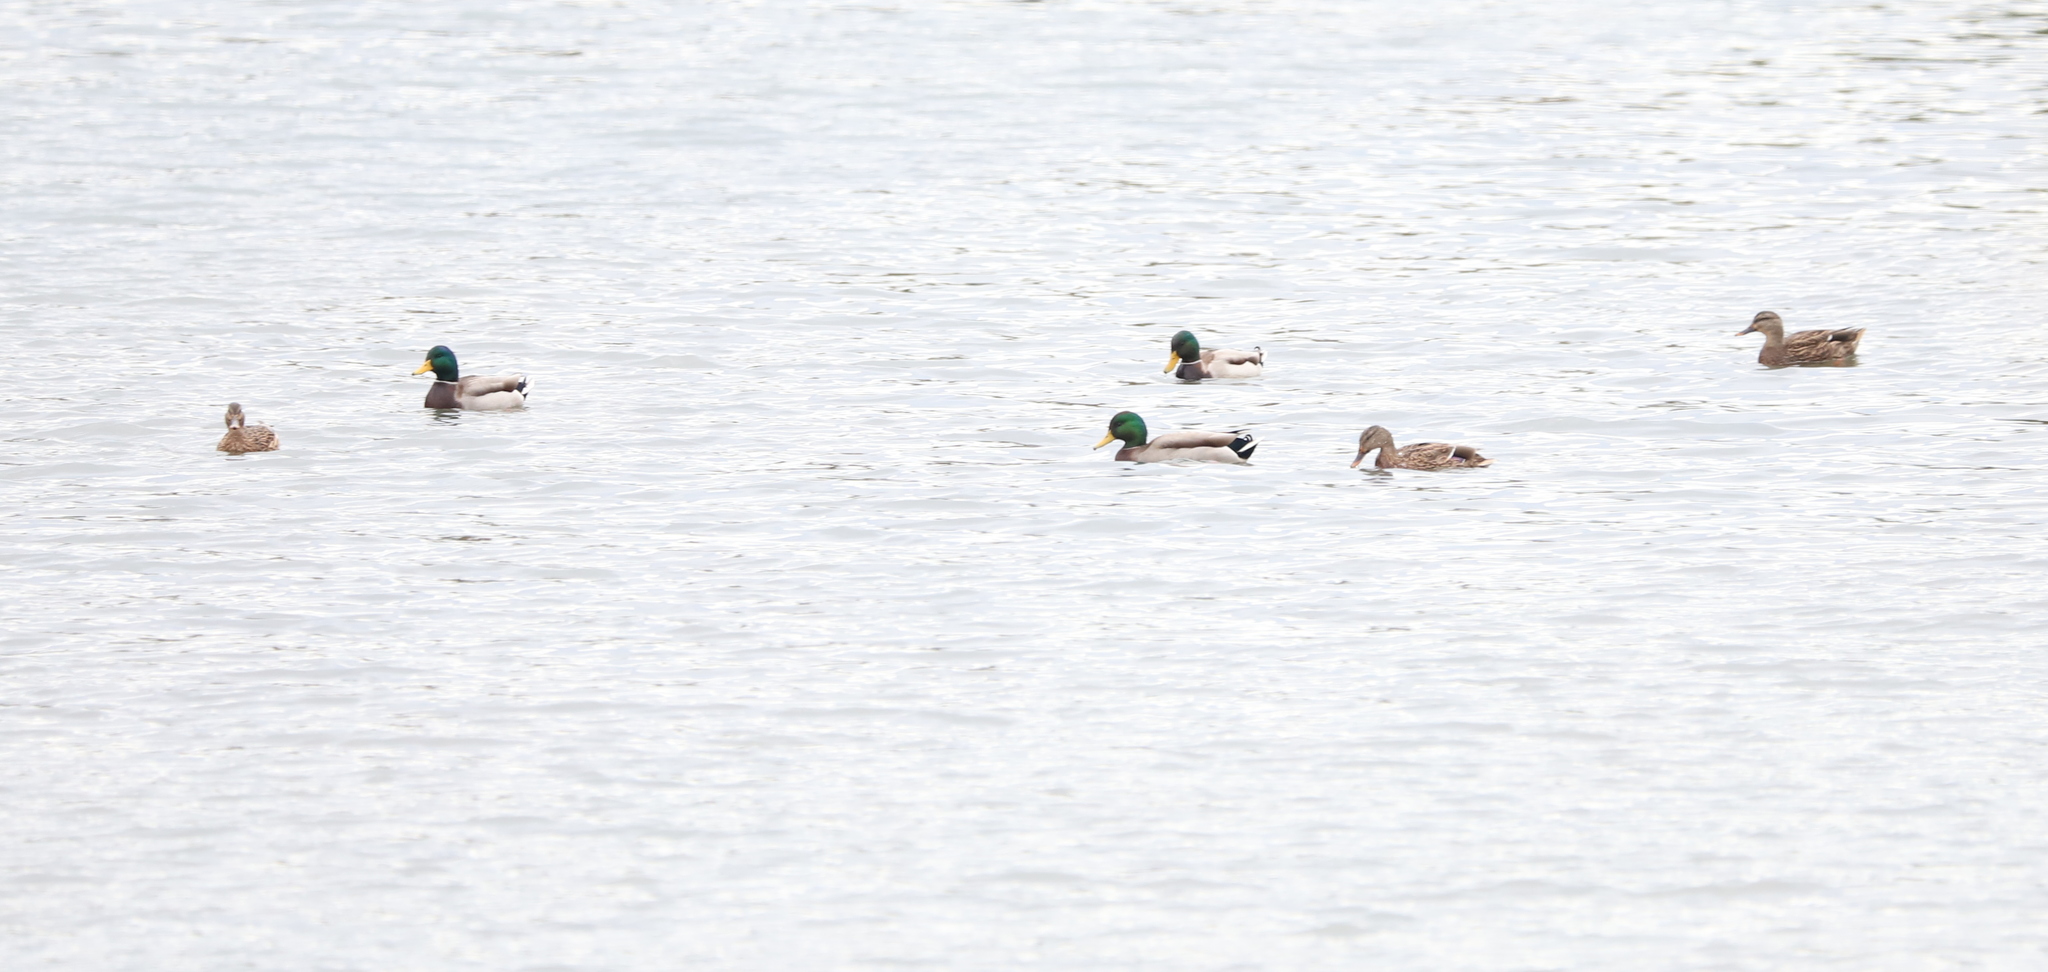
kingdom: Animalia
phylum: Chordata
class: Aves
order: Anseriformes
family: Anatidae
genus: Anas
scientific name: Anas platyrhynchos
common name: Mallard
